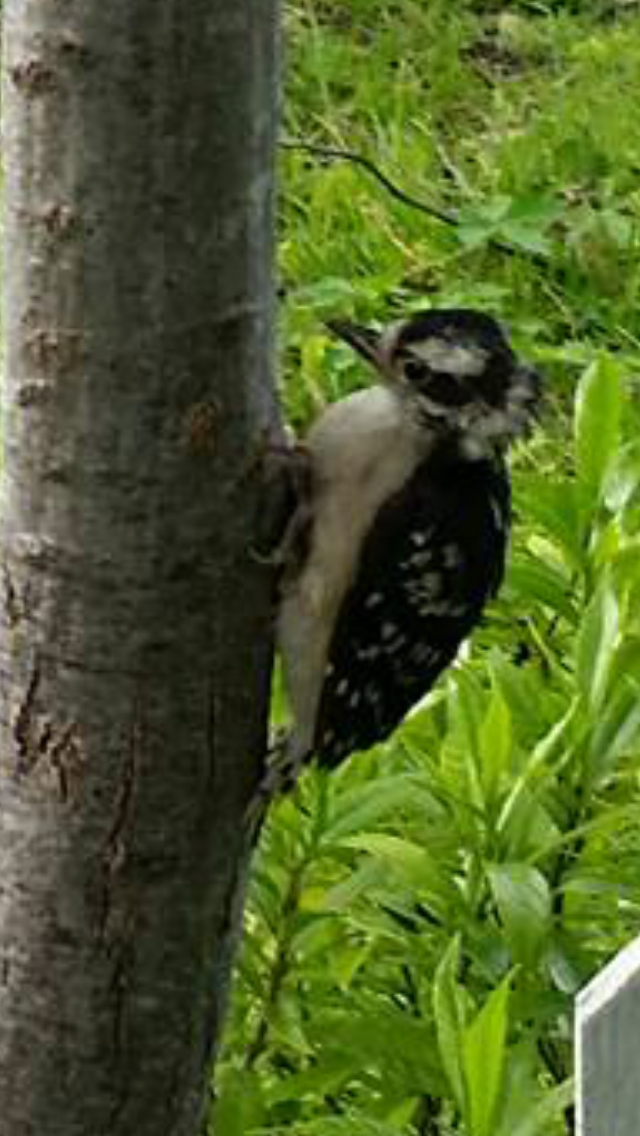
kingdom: Animalia
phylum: Chordata
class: Aves
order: Piciformes
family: Picidae
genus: Dryobates
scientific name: Dryobates pubescens
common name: Downy woodpecker
